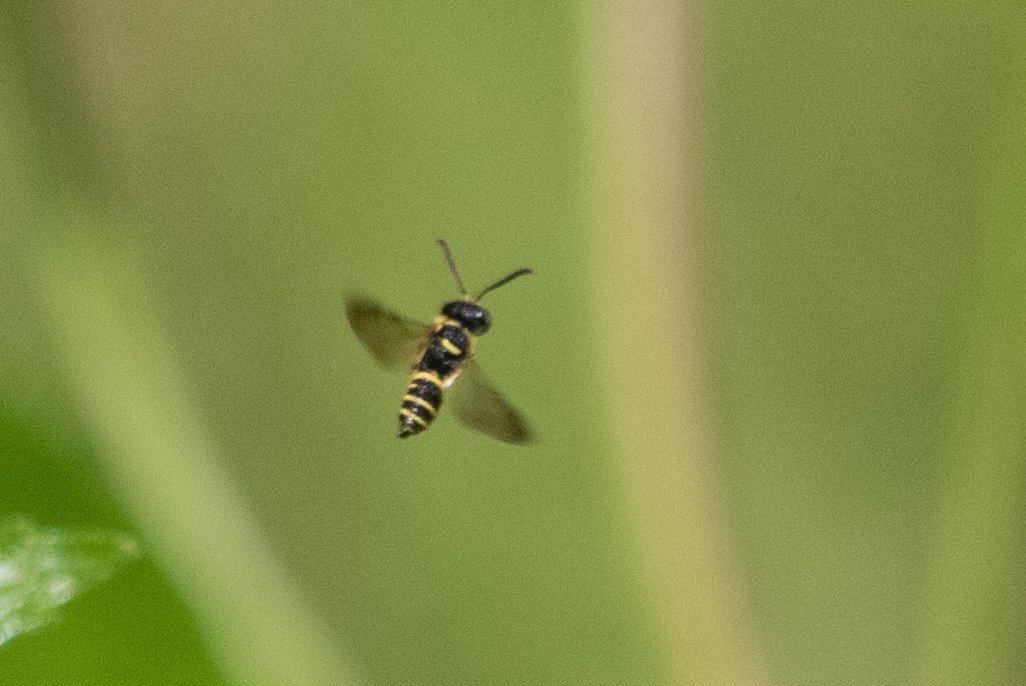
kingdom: Animalia
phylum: Arthropoda
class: Insecta
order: Hymenoptera
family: Crabronidae
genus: Cerceris
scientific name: Cerceris kennicottii
